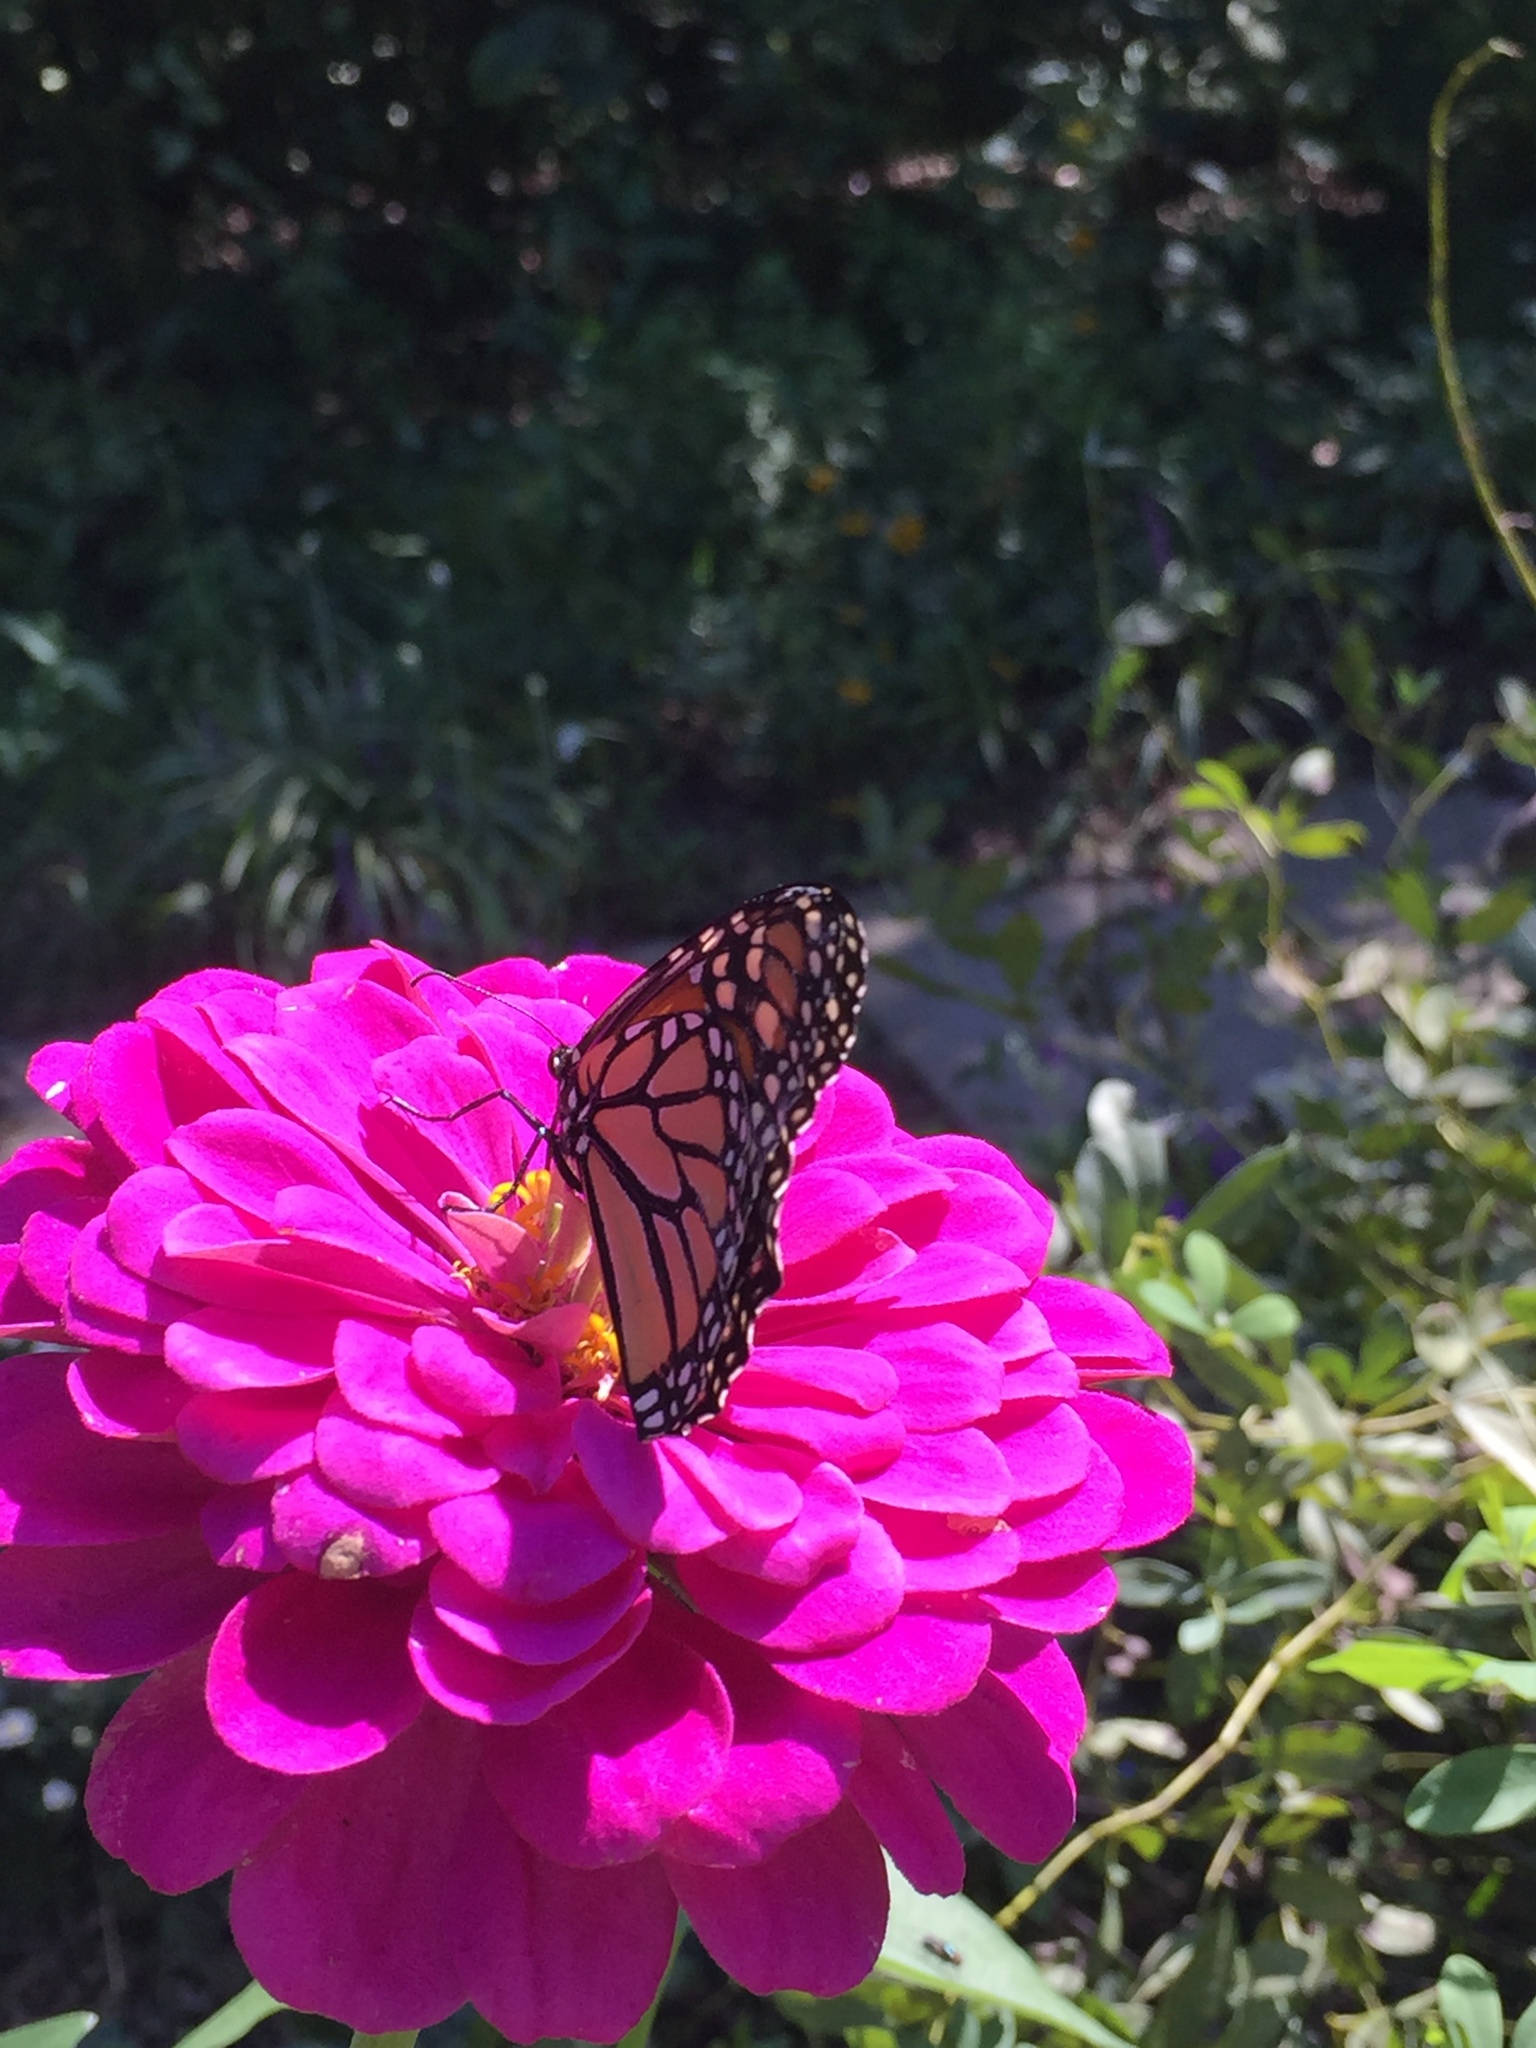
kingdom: Animalia
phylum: Arthropoda
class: Insecta
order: Lepidoptera
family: Nymphalidae
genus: Danaus
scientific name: Danaus plexippus
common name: Monarch
